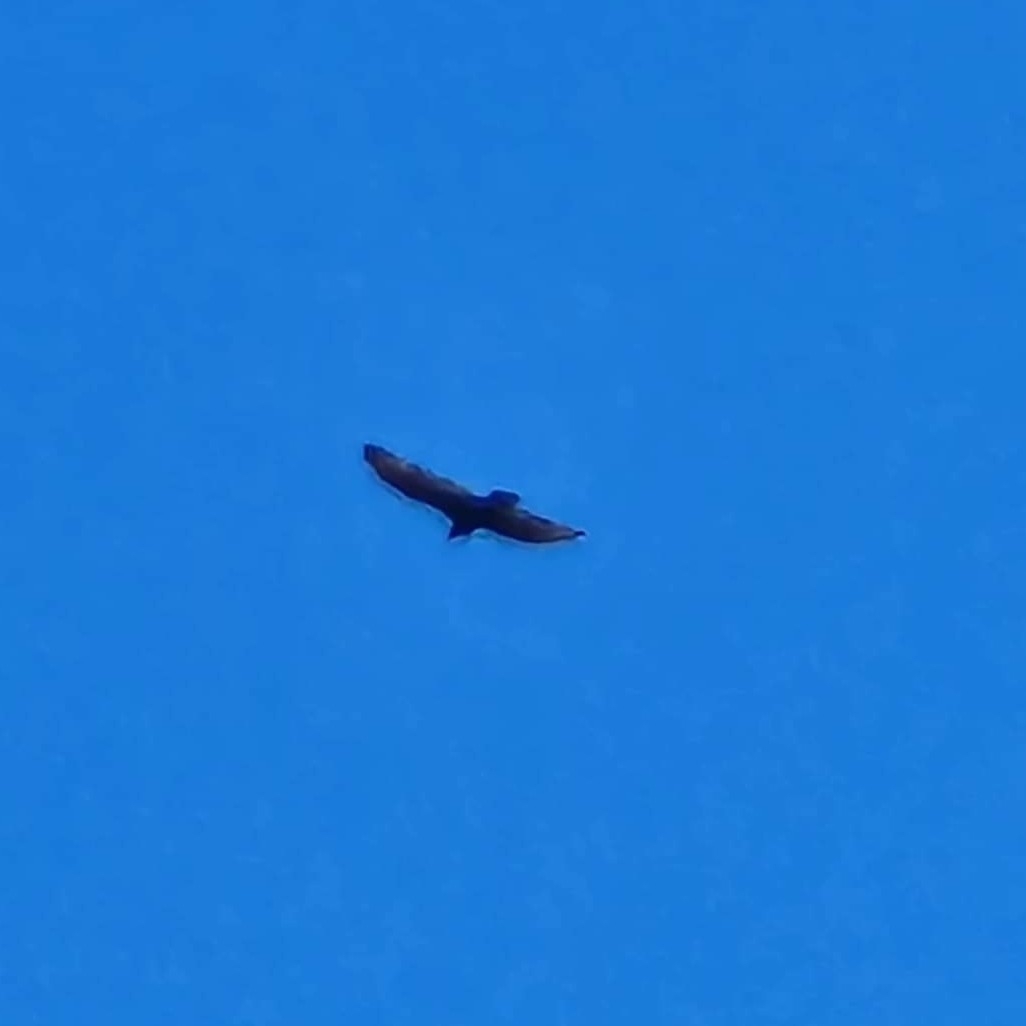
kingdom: Animalia
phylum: Chordata
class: Aves
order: Accipitriformes
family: Cathartidae
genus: Cathartes
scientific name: Cathartes aura
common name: Turkey vulture
